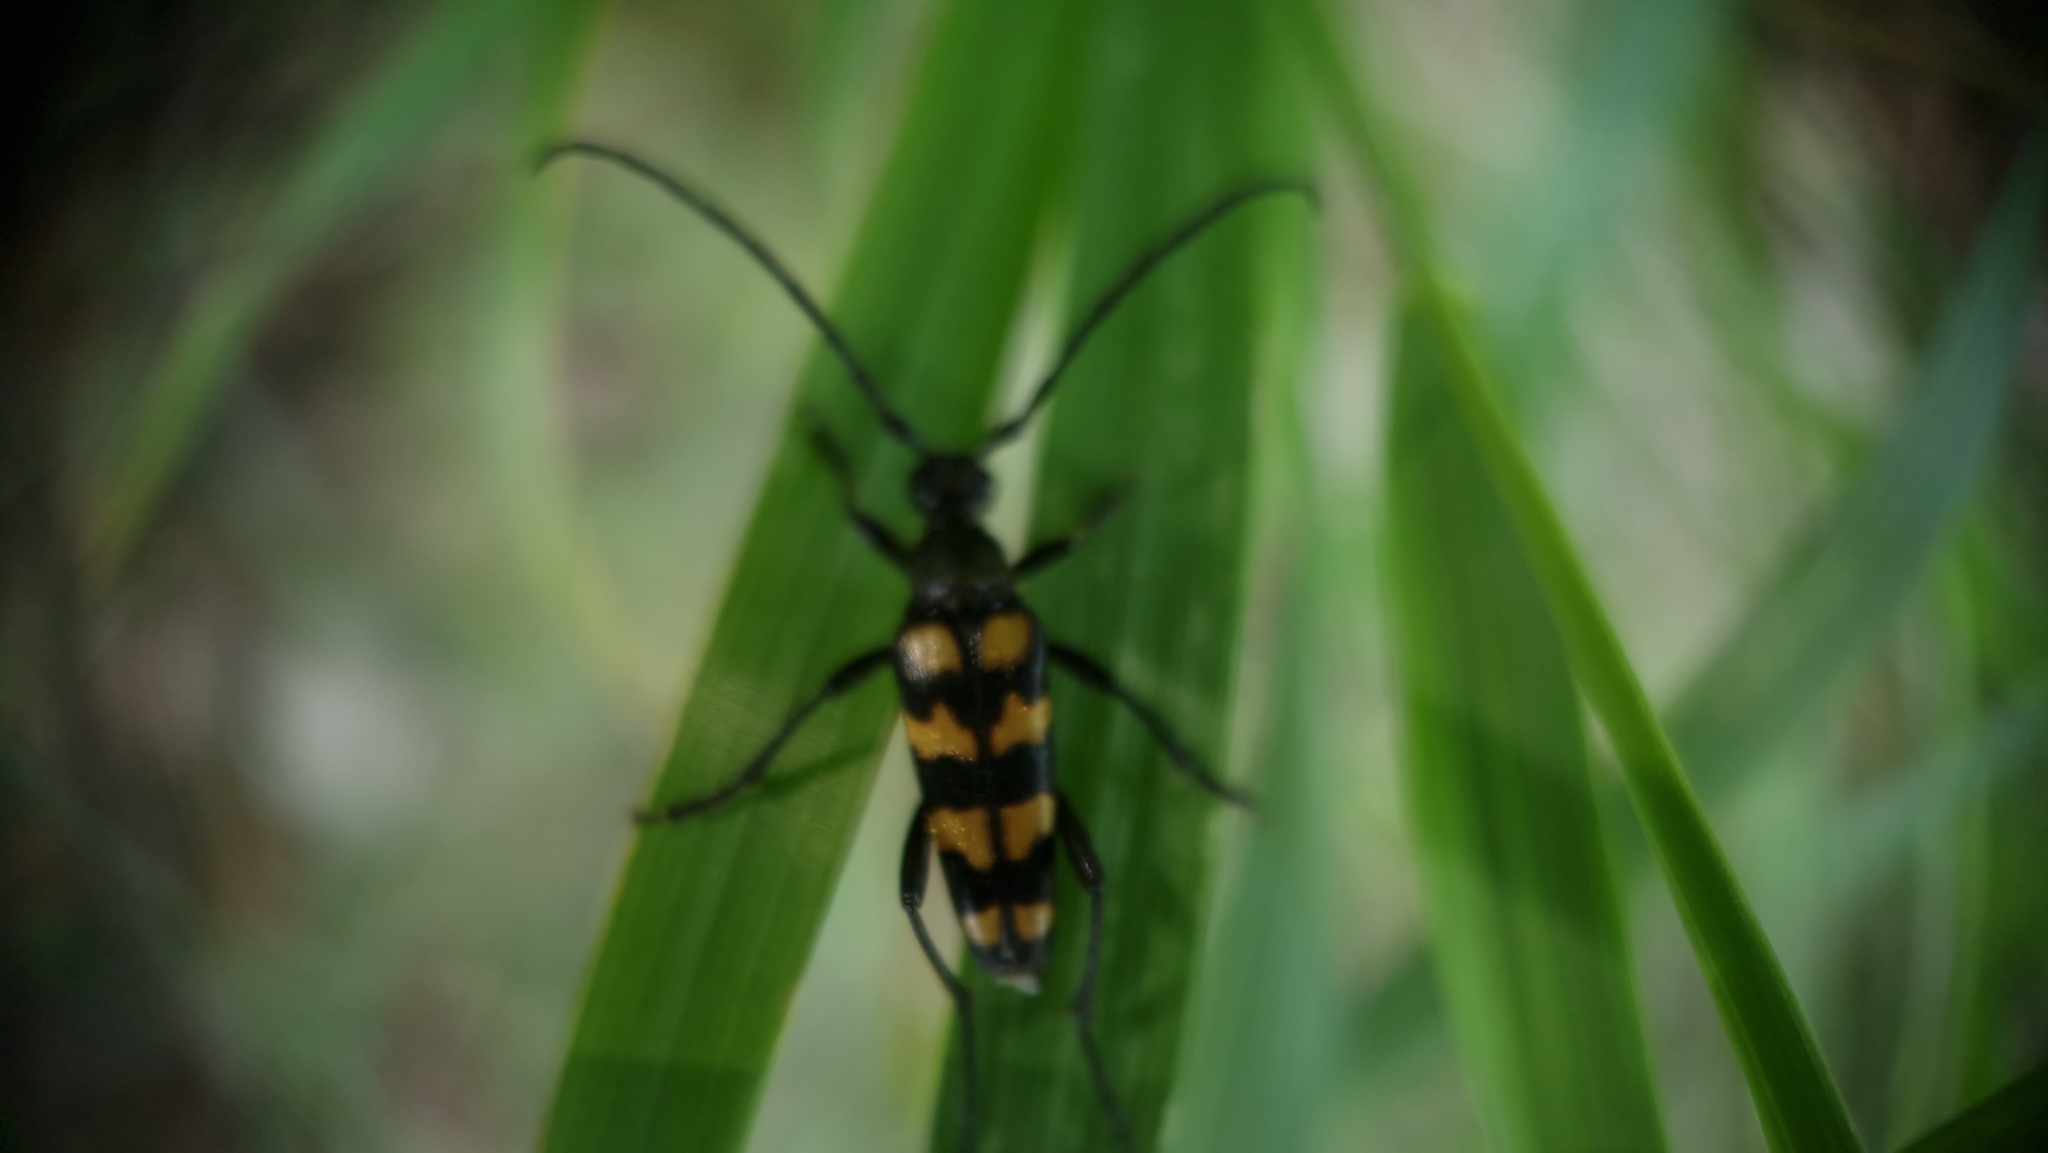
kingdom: Animalia
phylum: Arthropoda
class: Insecta
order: Coleoptera
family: Cerambycidae
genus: Leptura
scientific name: Leptura quadrifasciata
